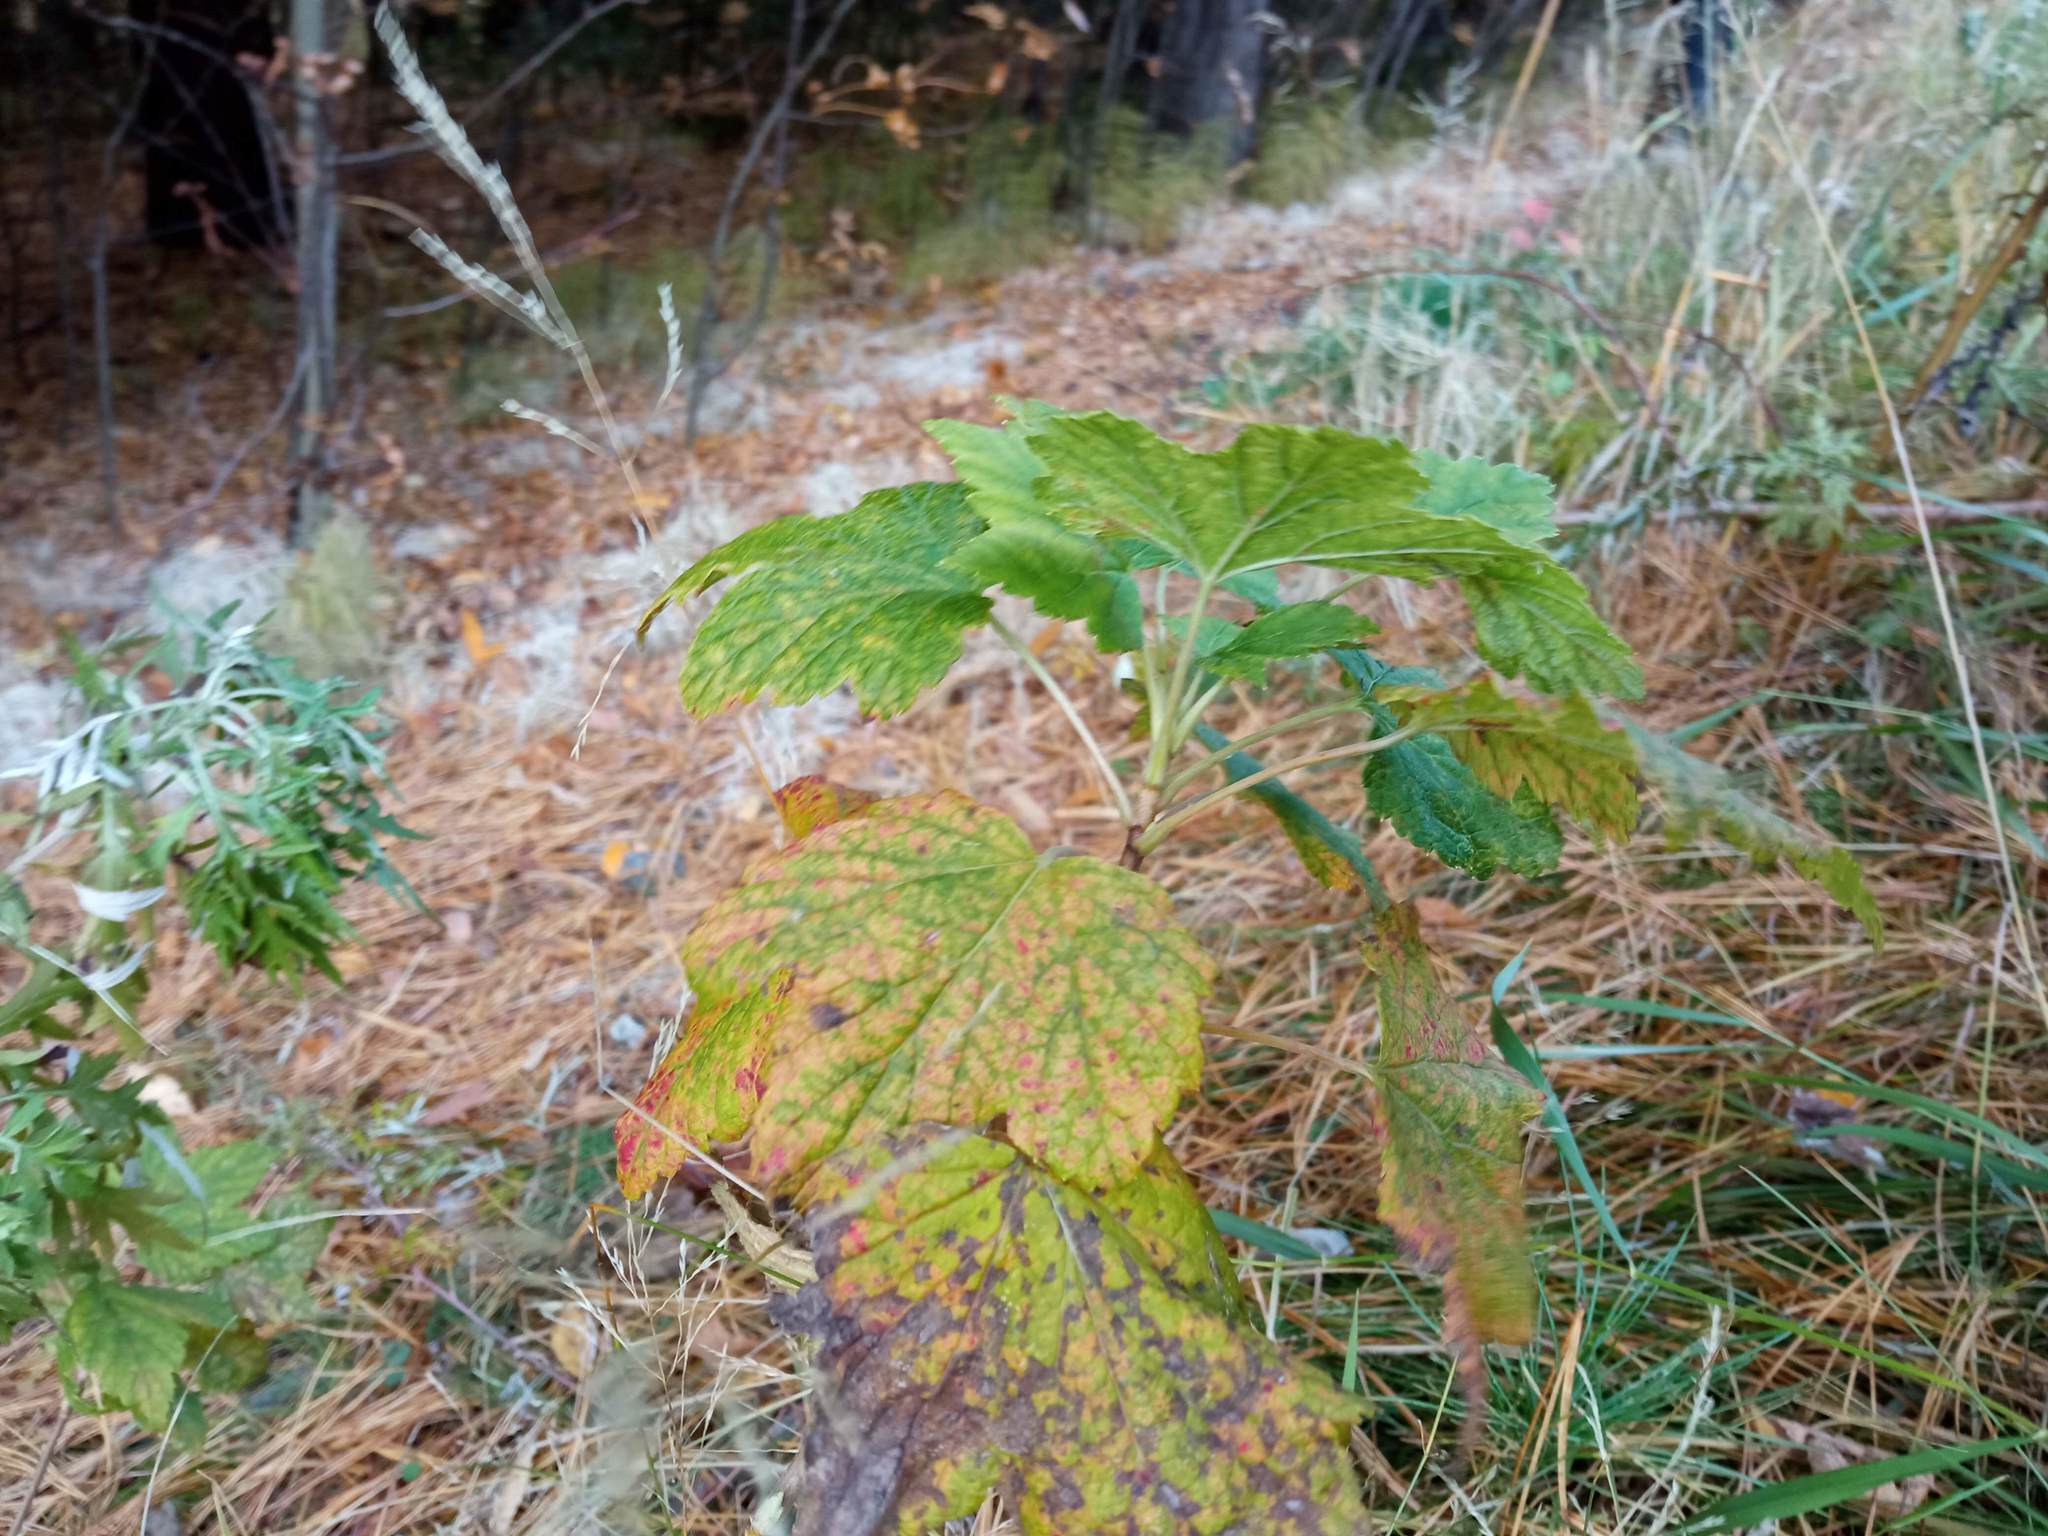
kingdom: Plantae
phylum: Tracheophyta
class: Magnoliopsida
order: Saxifragales
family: Grossulariaceae
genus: Ribes
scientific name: Ribes nigrum
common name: Black currant
